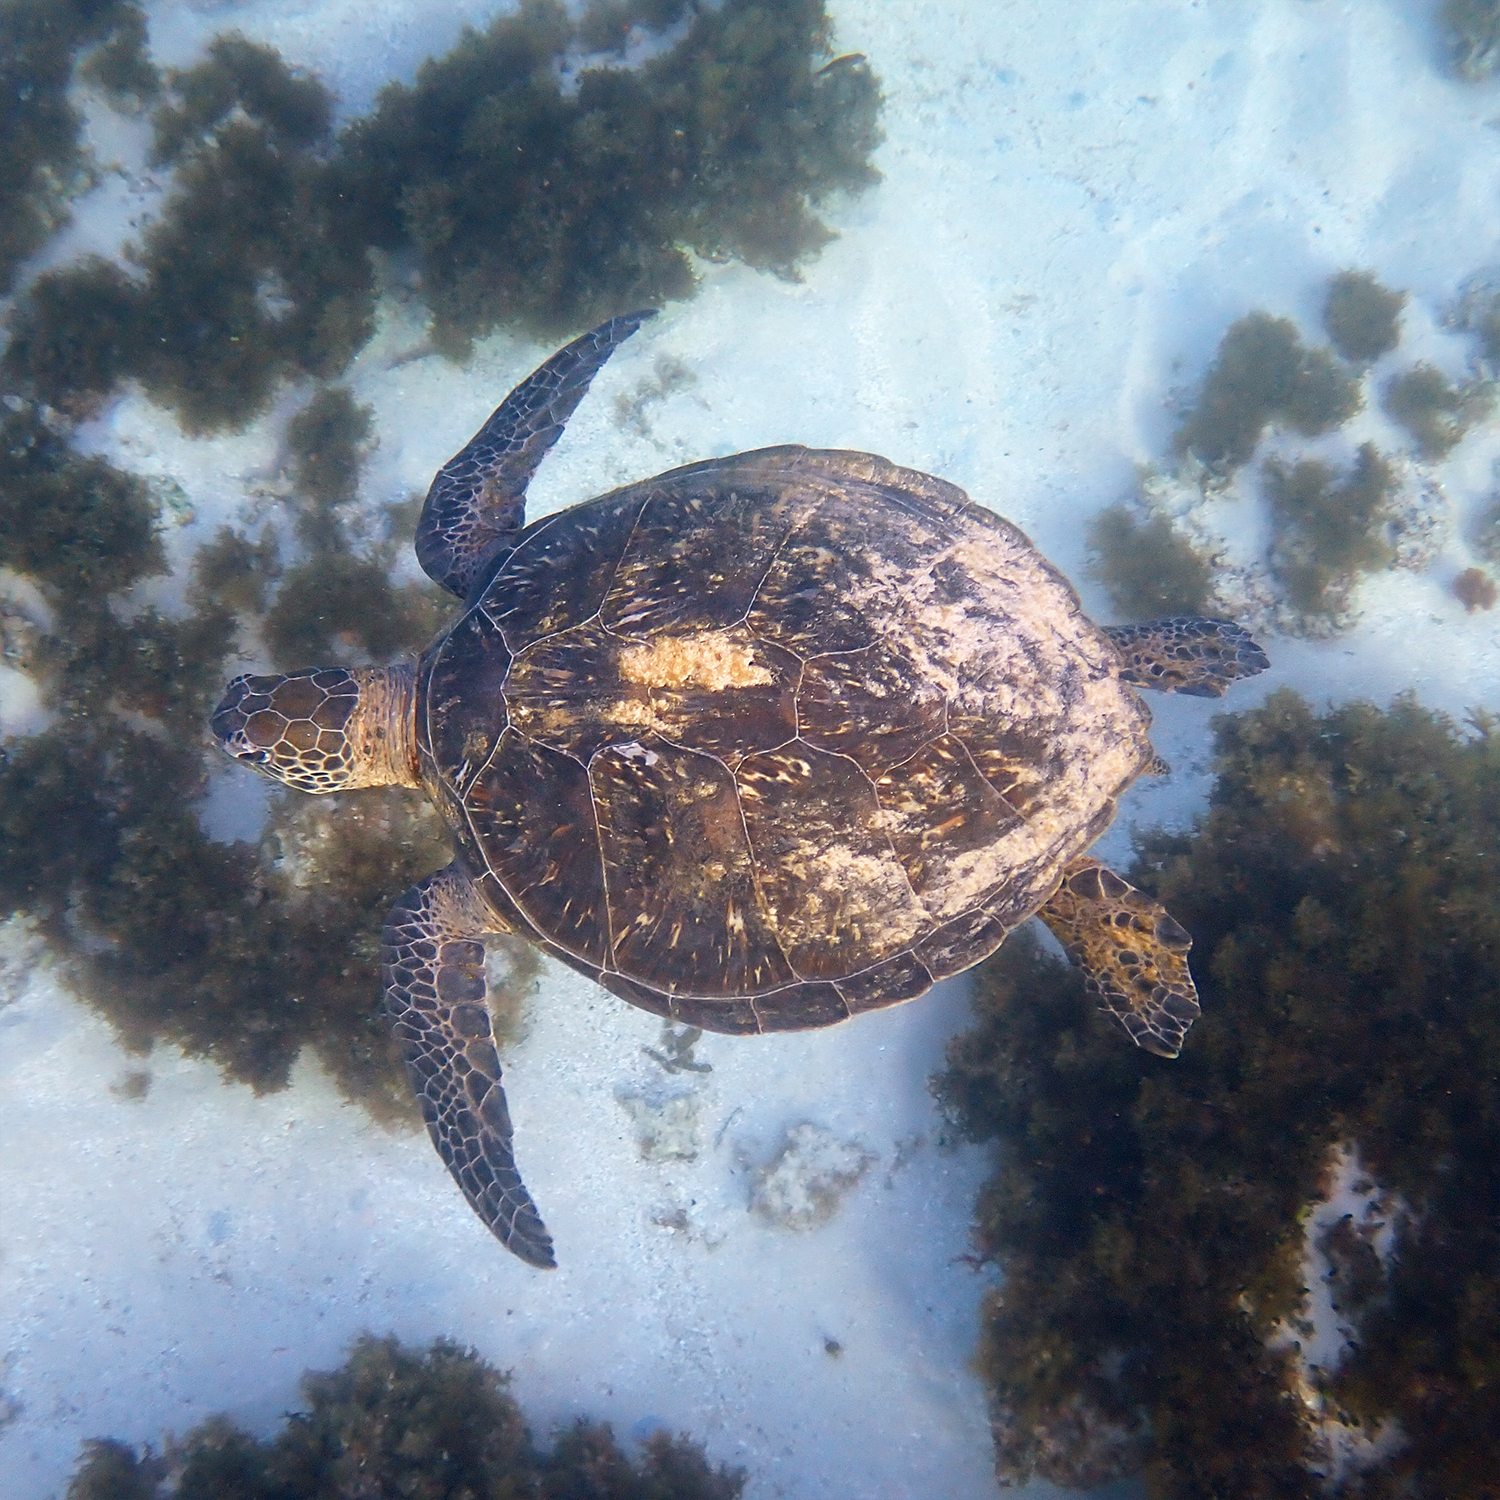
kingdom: Animalia
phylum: Chordata
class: Testudines
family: Cheloniidae
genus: Chelonia
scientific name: Chelonia mydas
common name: Green turtle
